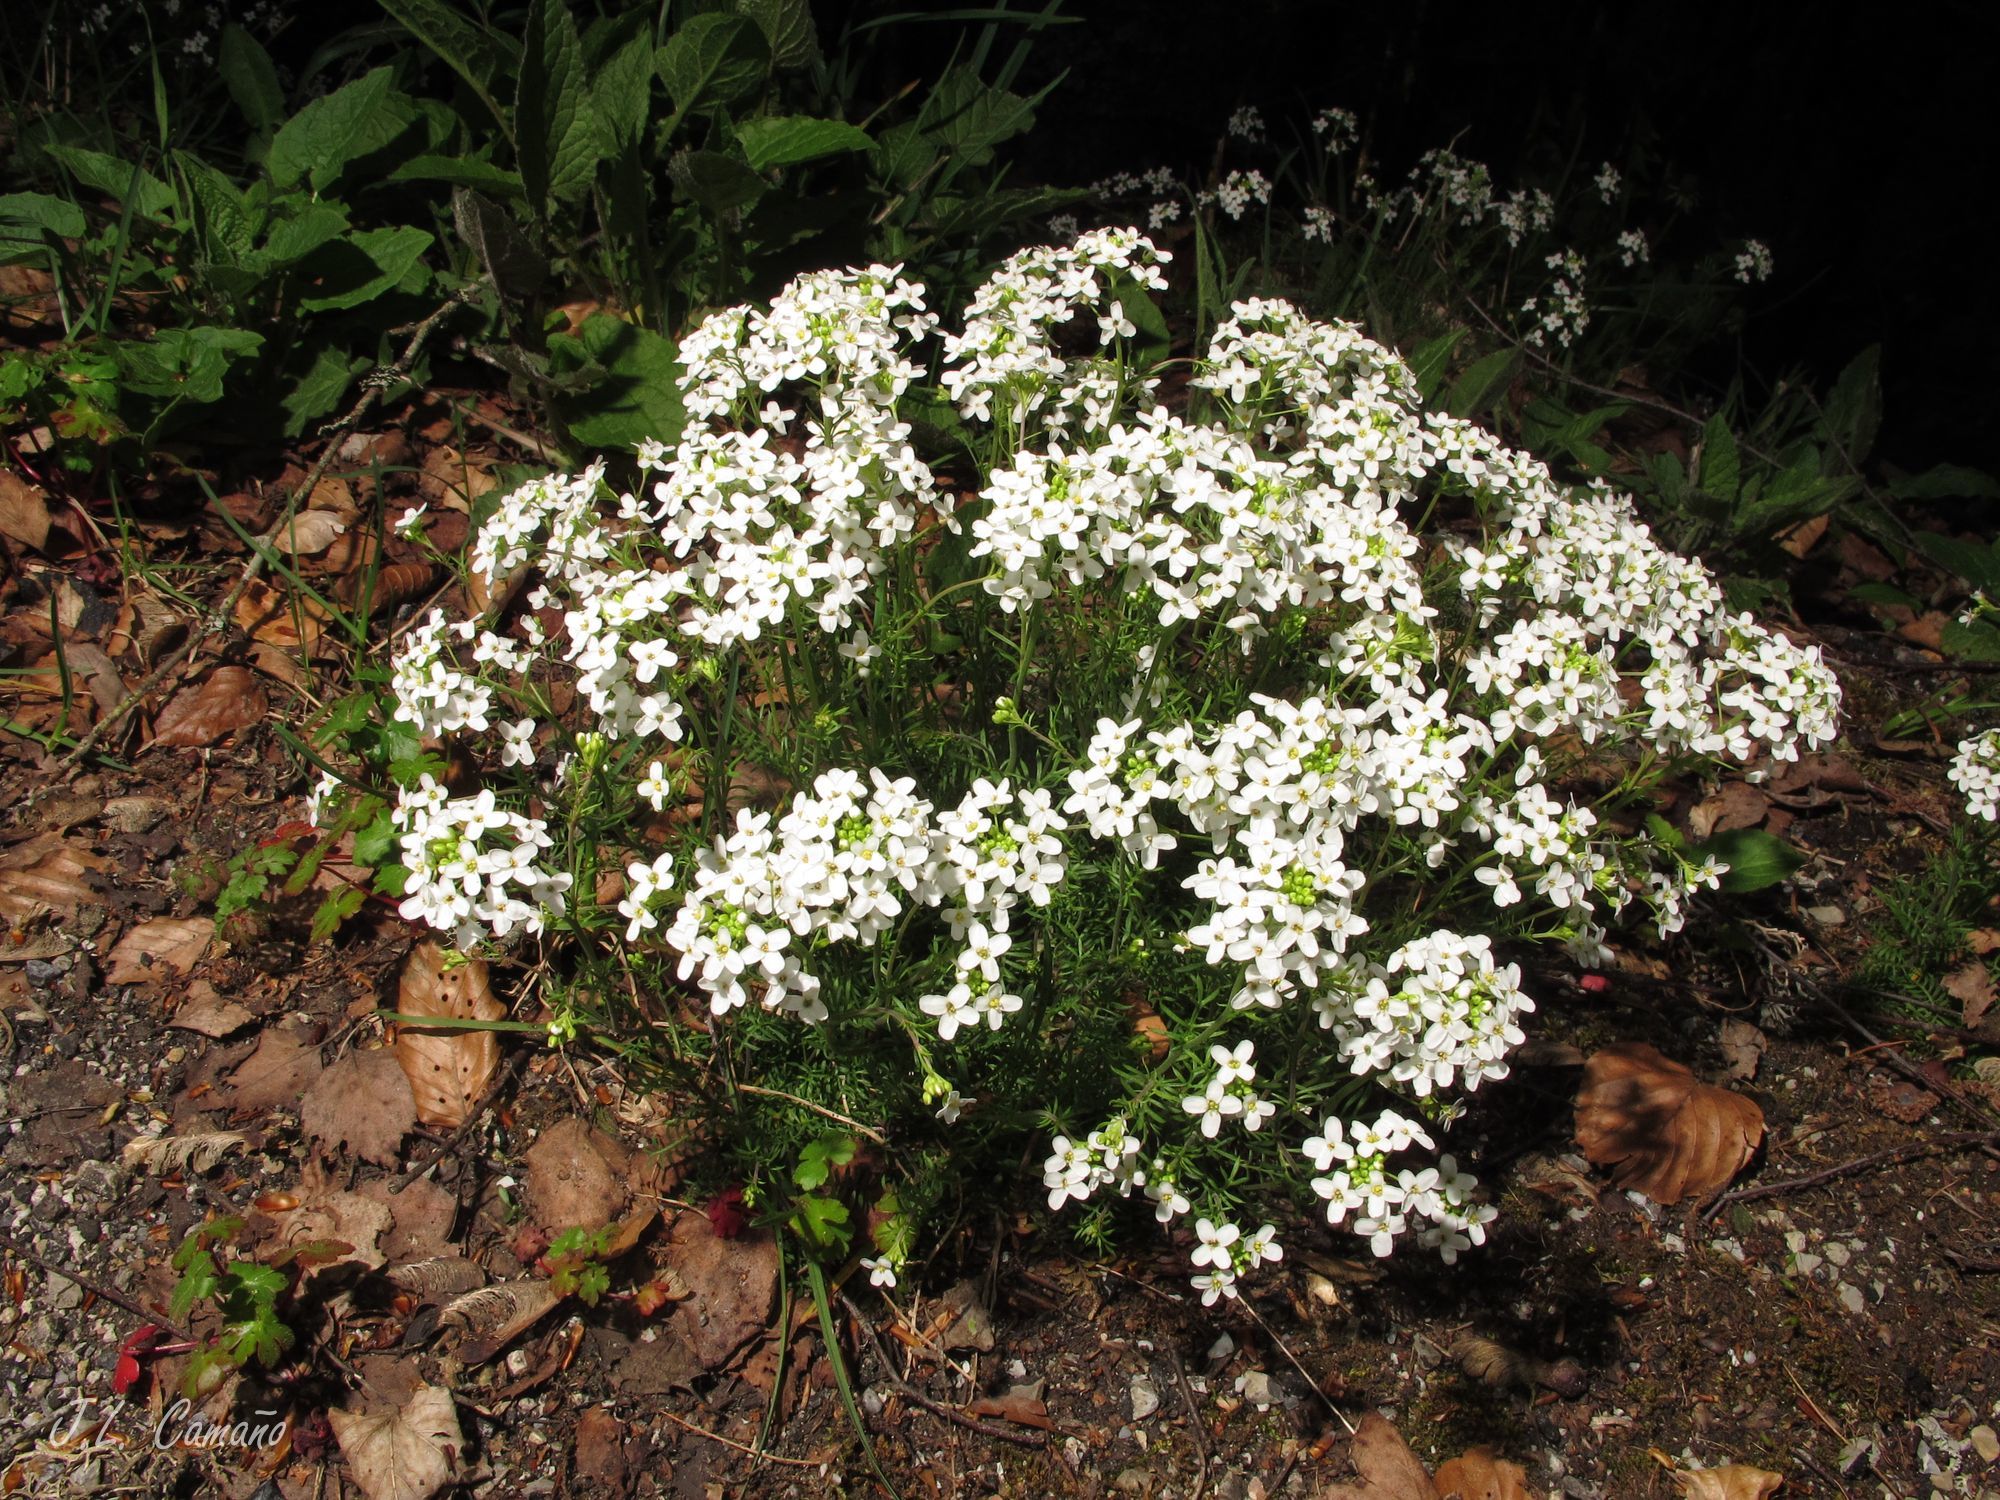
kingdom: Plantae
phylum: Tracheophyta
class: Magnoliopsida
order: Brassicales
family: Brassicaceae
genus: Hornungia
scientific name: Hornungia alpina
